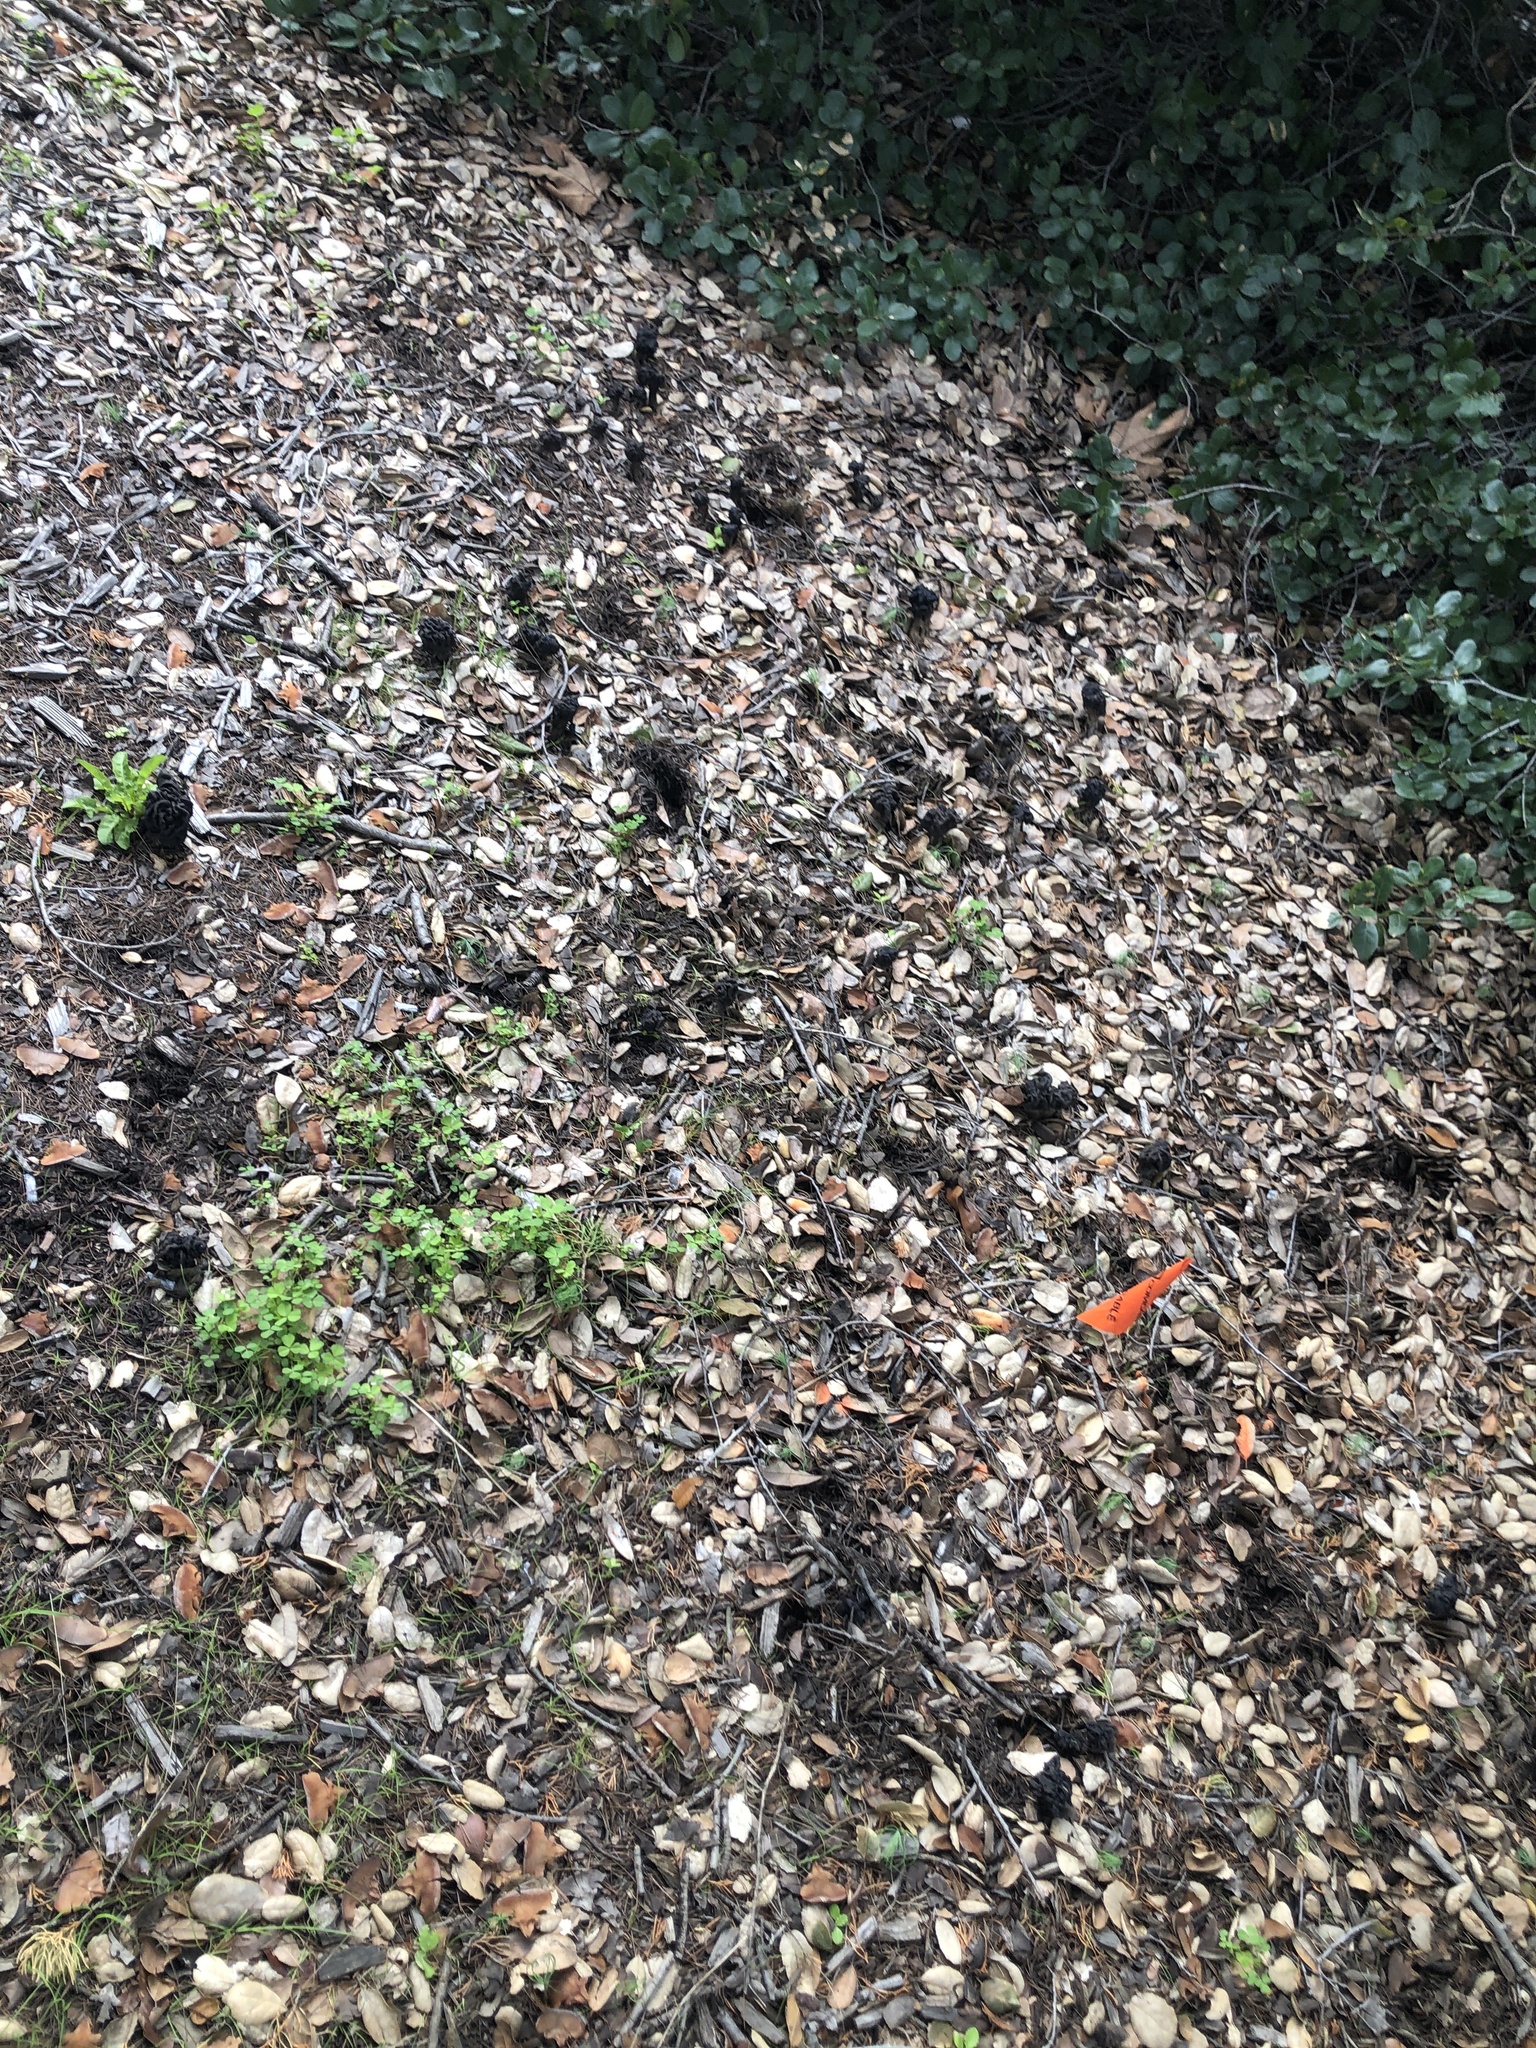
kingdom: Fungi
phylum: Ascomycota
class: Pezizomycetes
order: Pezizales
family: Helvellaceae
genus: Helvella
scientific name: Helvella dryophila
